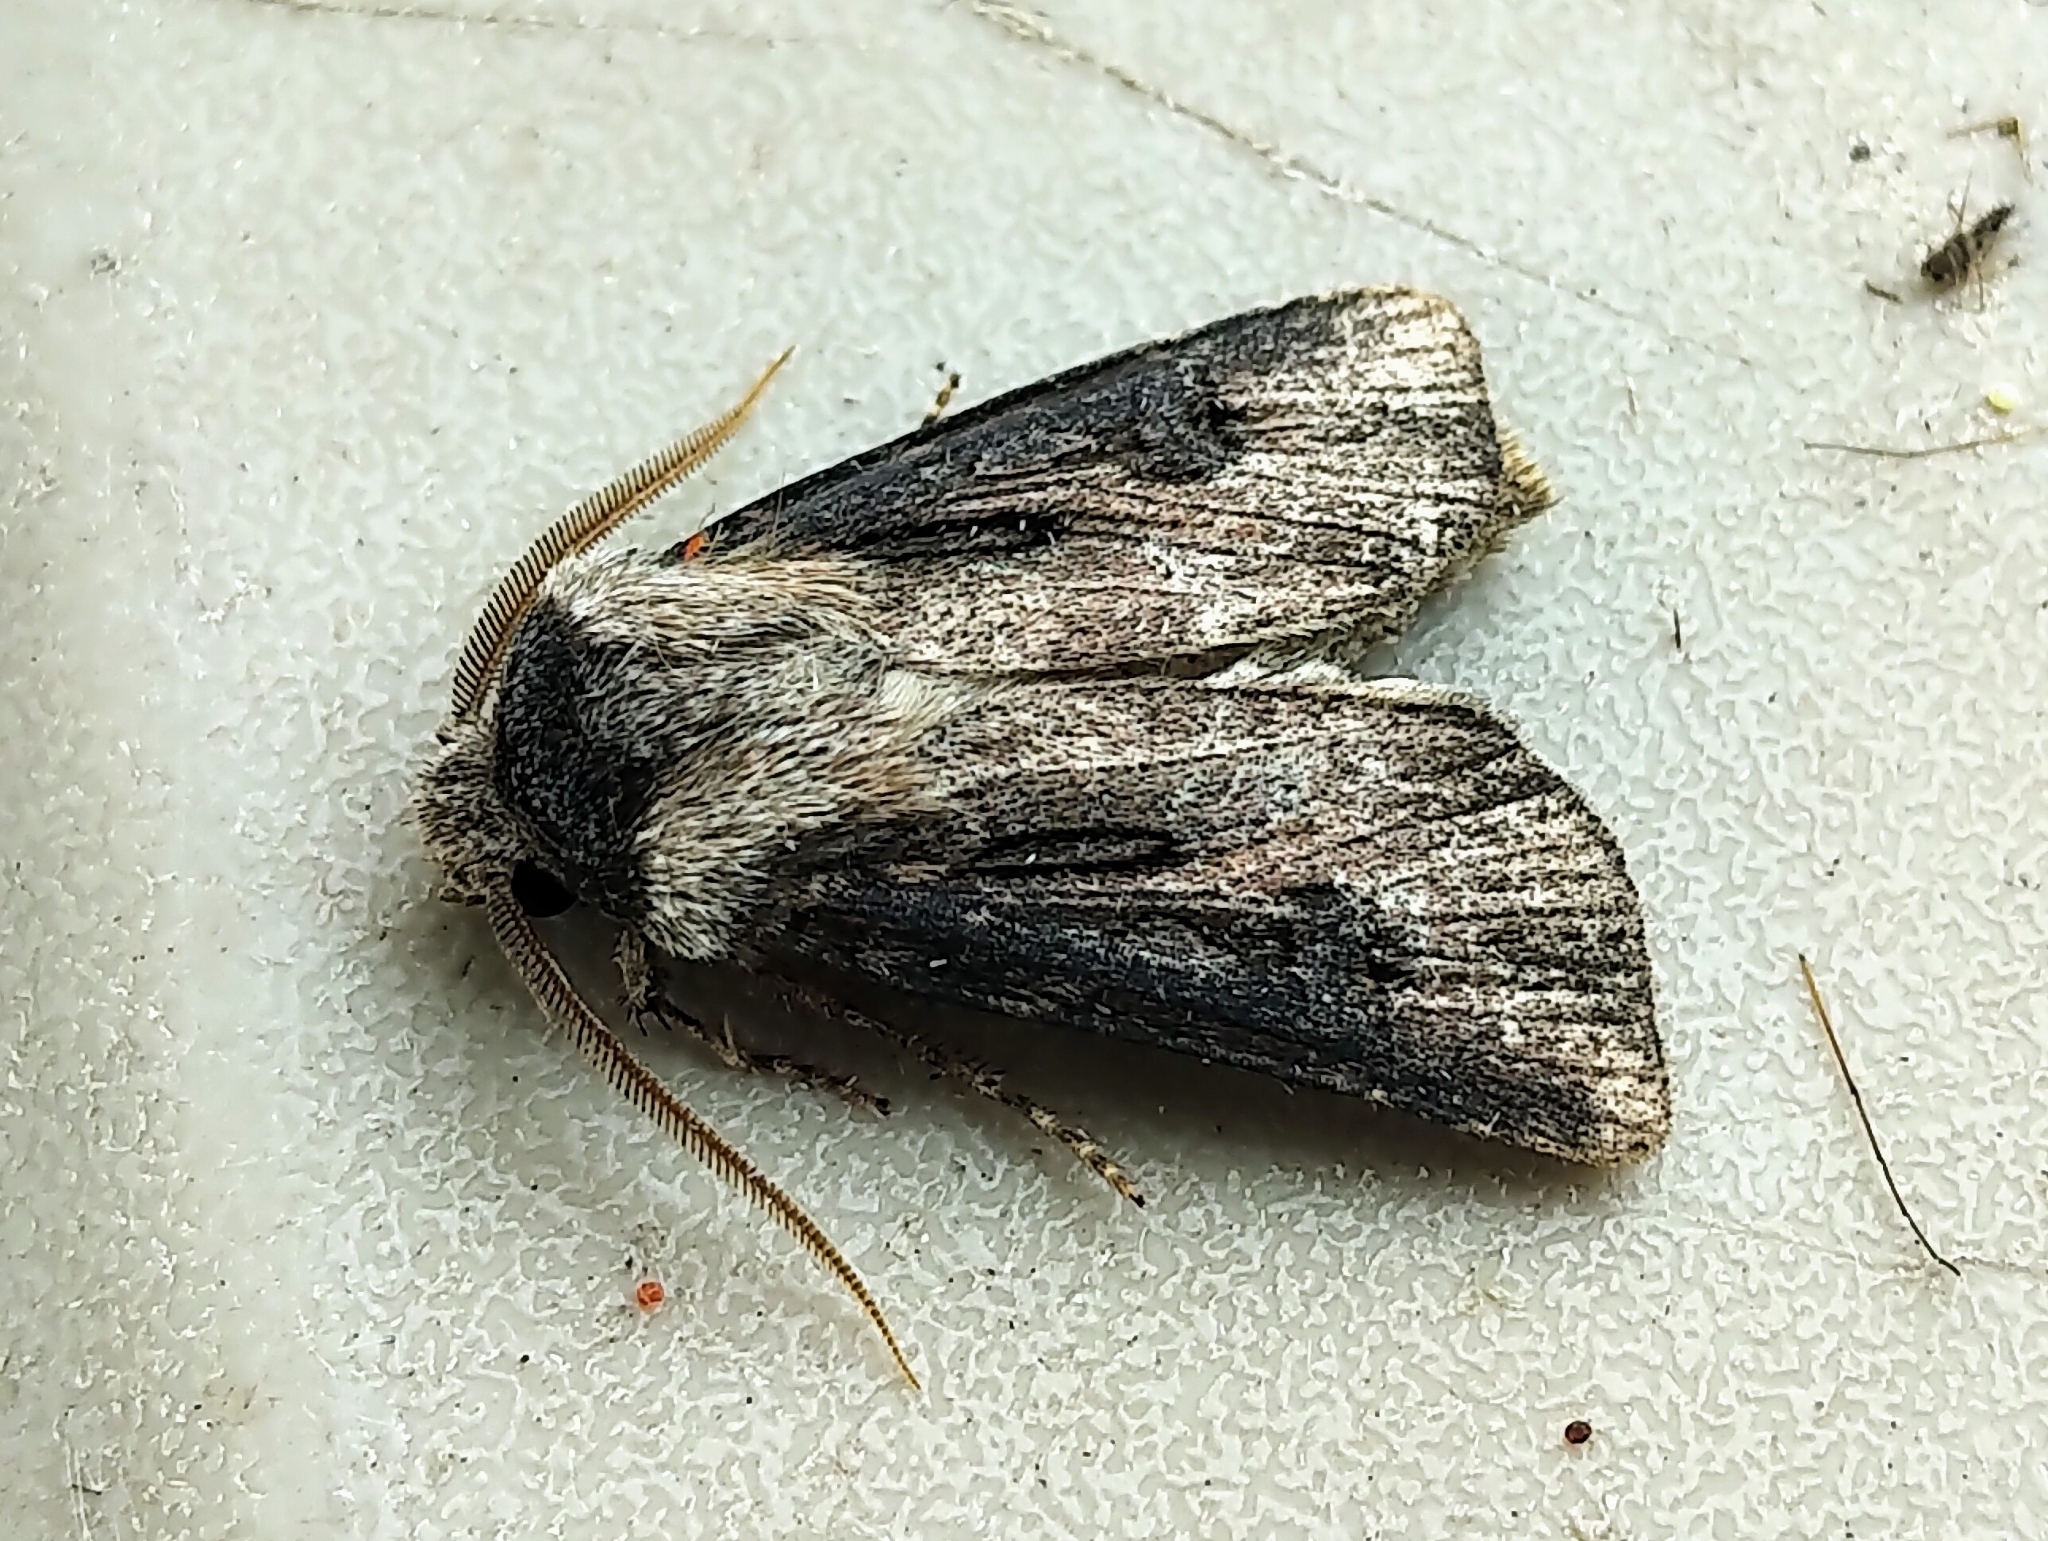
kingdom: Animalia
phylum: Arthropoda
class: Insecta
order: Lepidoptera
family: Noctuidae
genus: Agrotis
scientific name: Agrotis venerabilis
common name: Venerable dart
